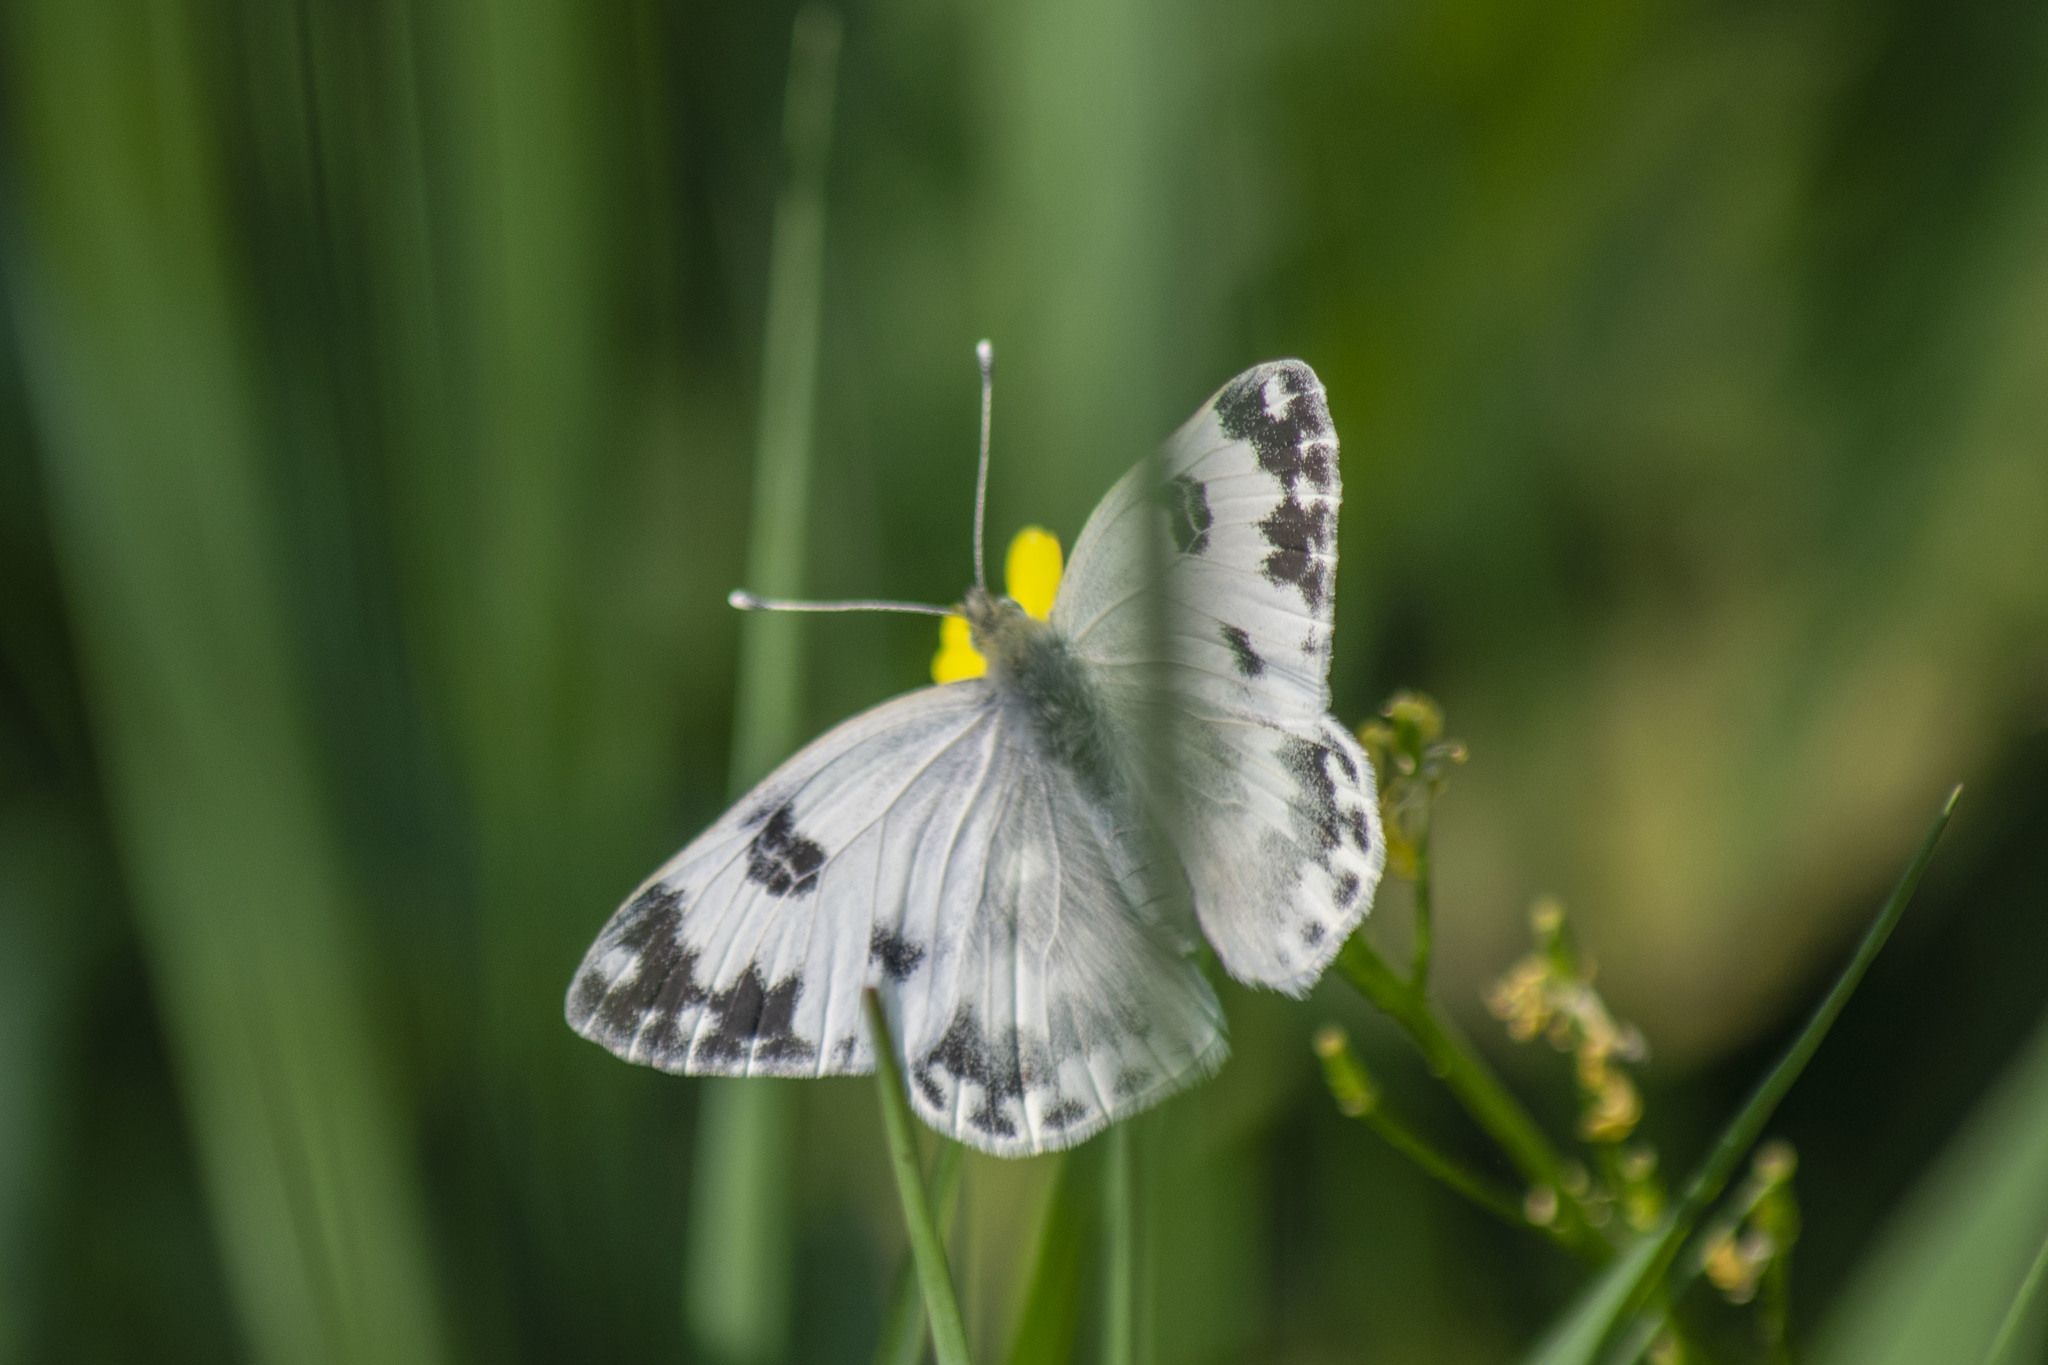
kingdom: Animalia
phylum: Arthropoda
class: Insecta
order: Lepidoptera
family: Pieridae
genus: Pontia
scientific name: Pontia edusa
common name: Eastern bath white
